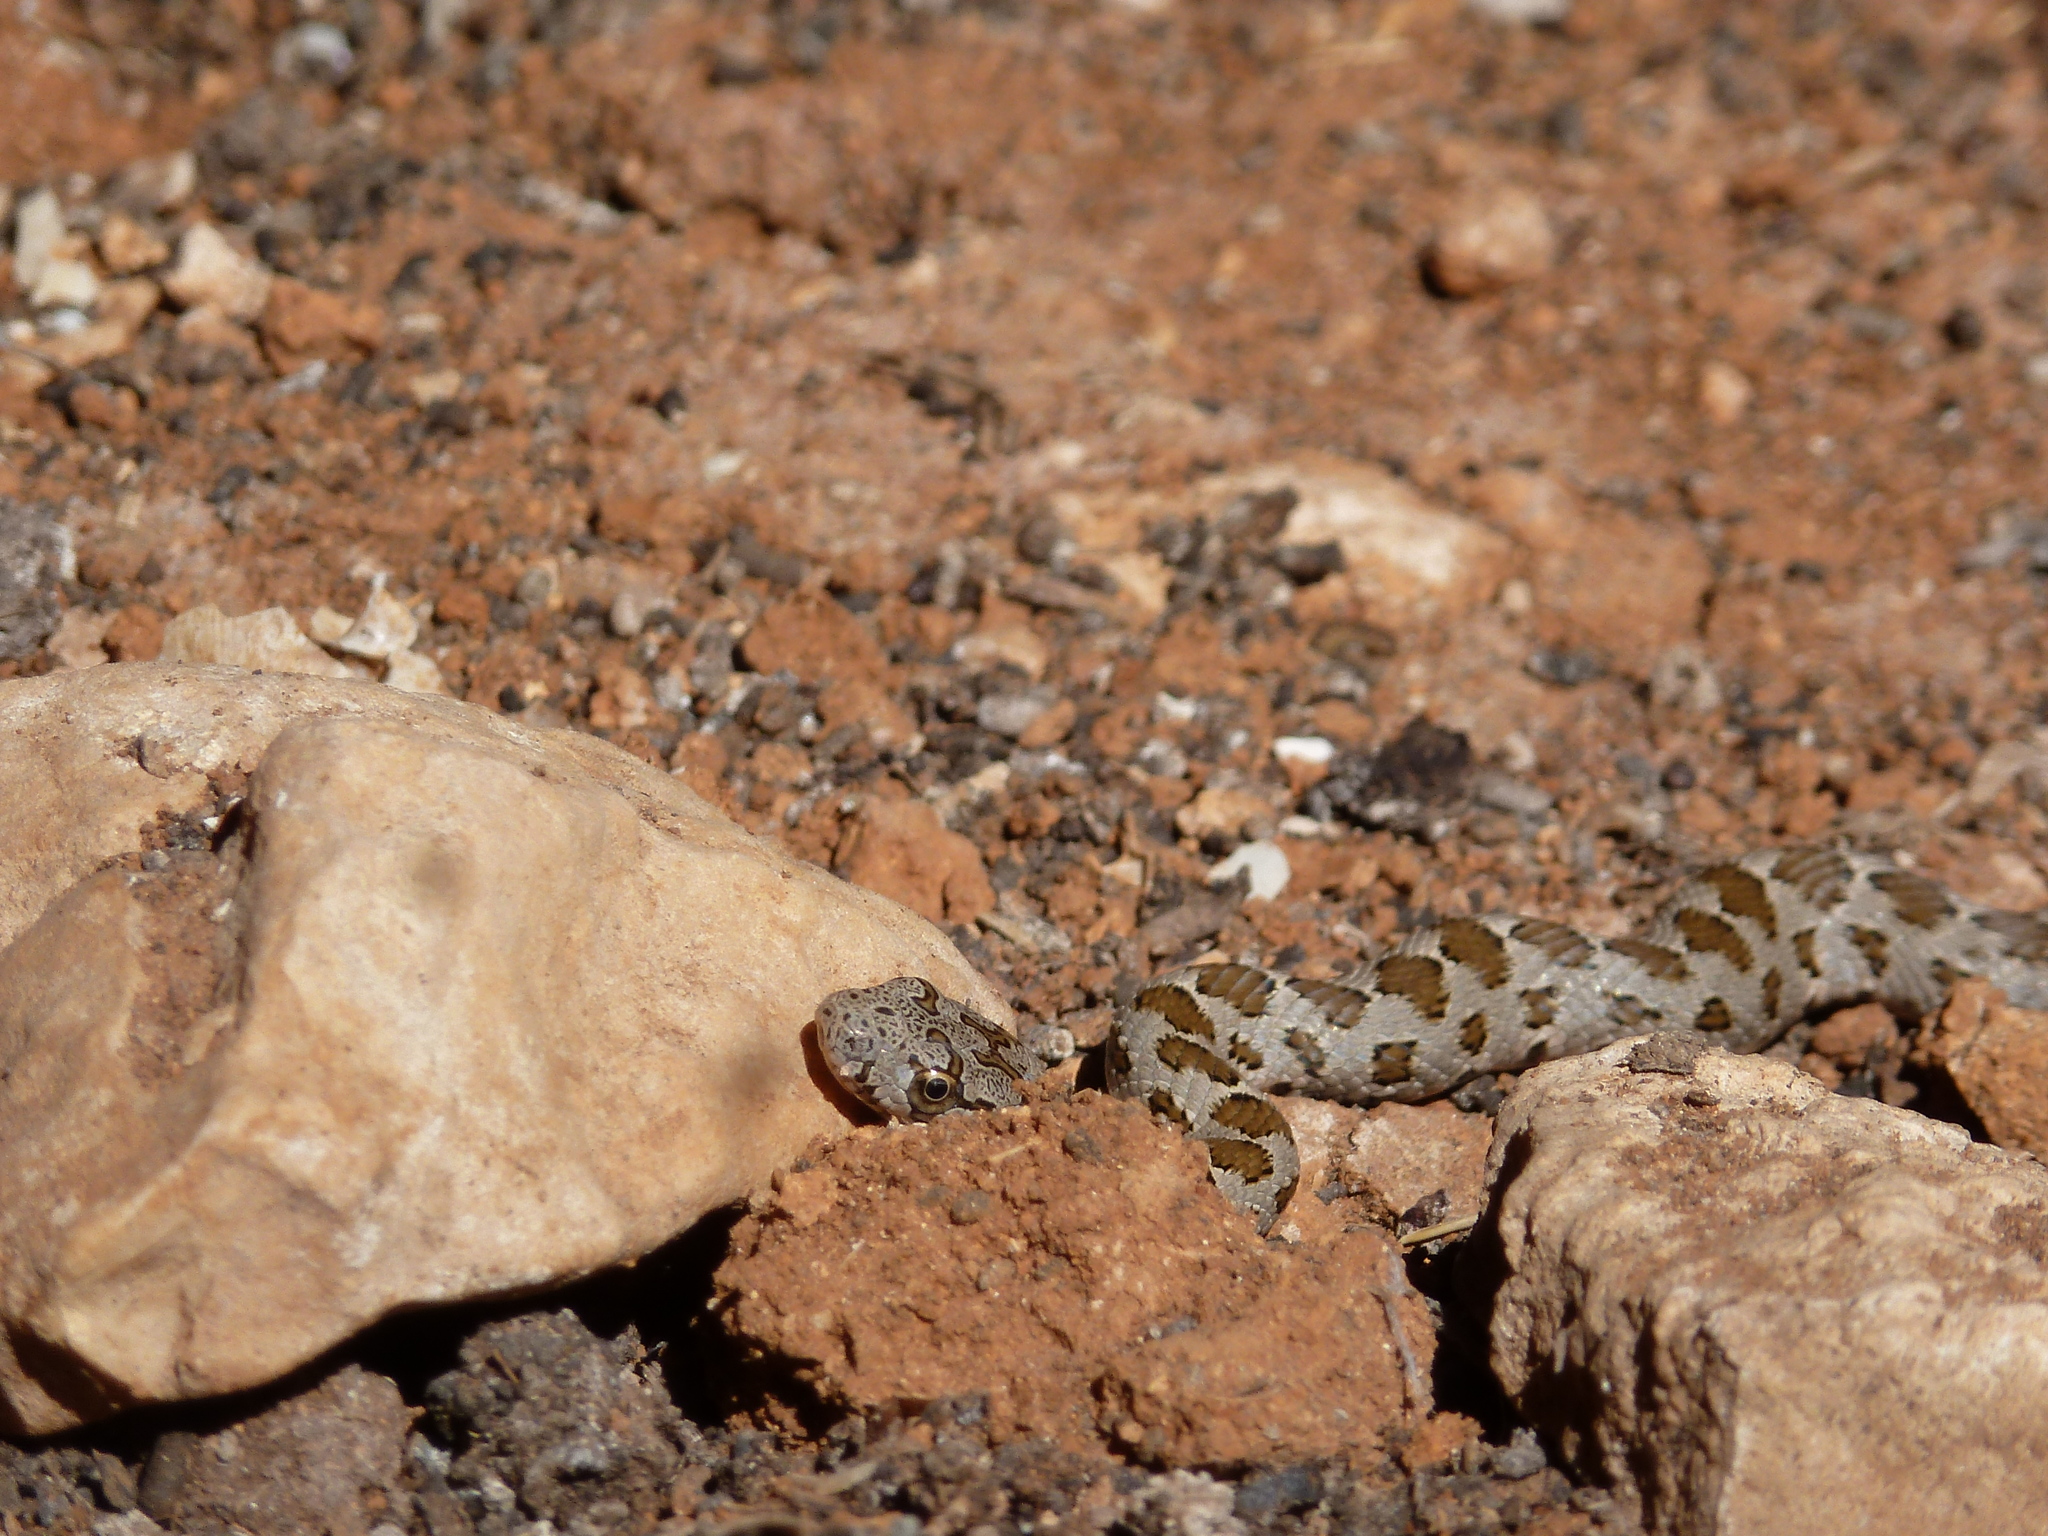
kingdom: Animalia
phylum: Chordata
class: Squamata
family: Colubridae
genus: Hemorrhois
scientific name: Hemorrhois nummifer
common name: Asian racer
